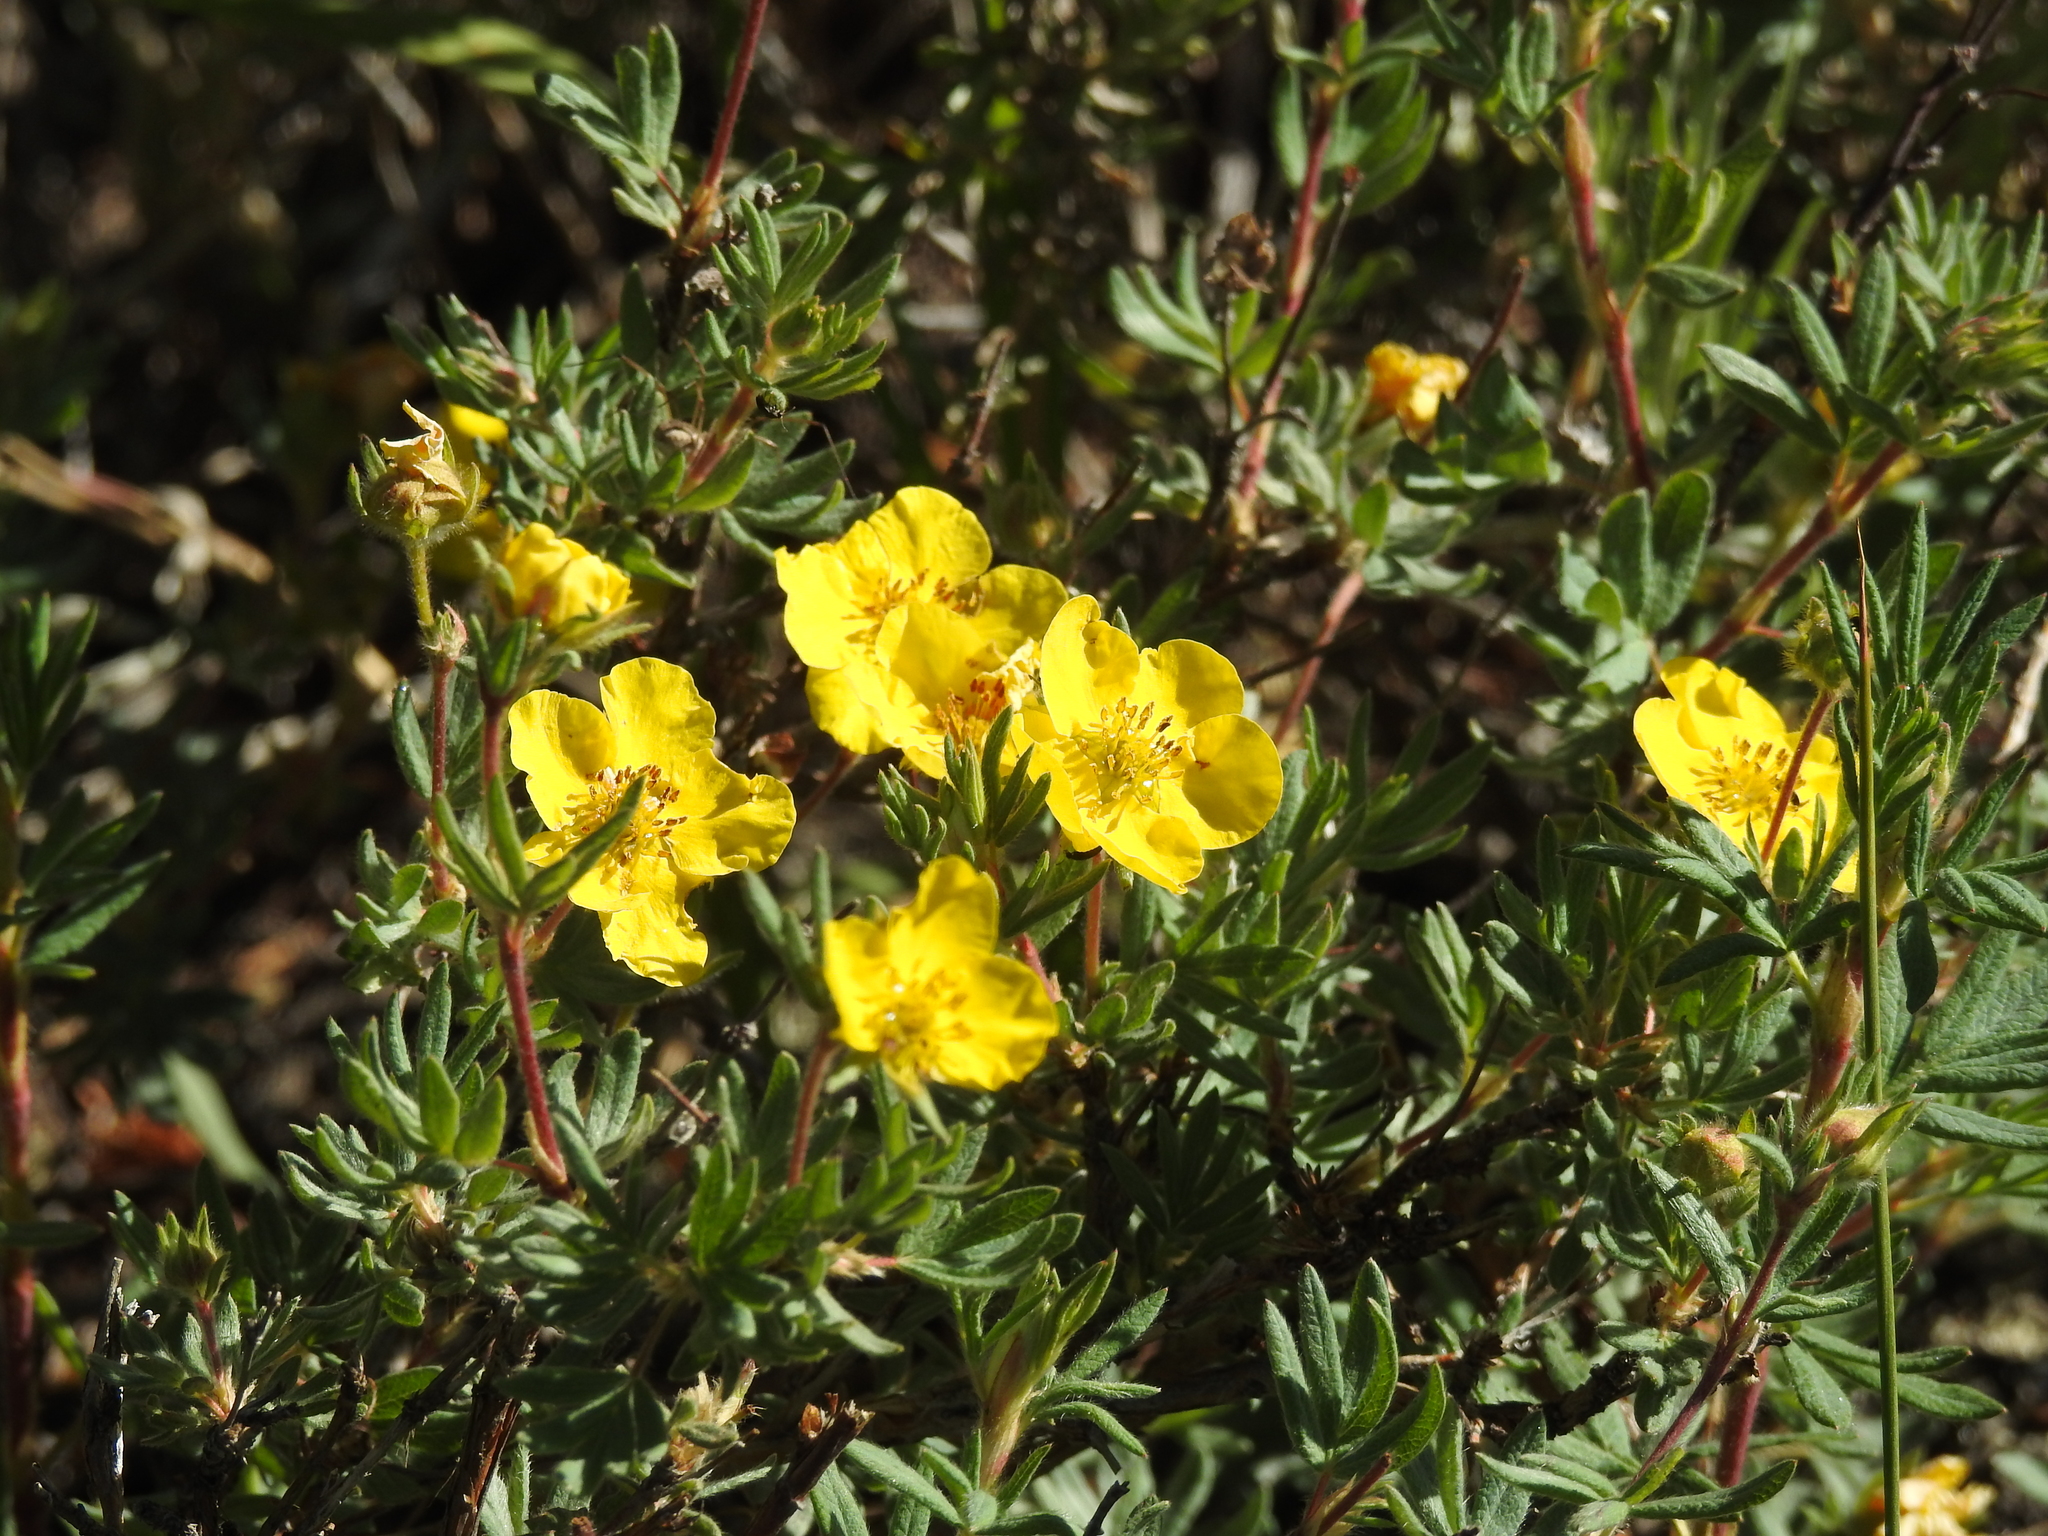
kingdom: Plantae
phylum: Tracheophyta
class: Magnoliopsida
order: Rosales
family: Rosaceae
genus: Dasiphora
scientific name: Dasiphora fruticosa
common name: Shrubby cinquefoil
